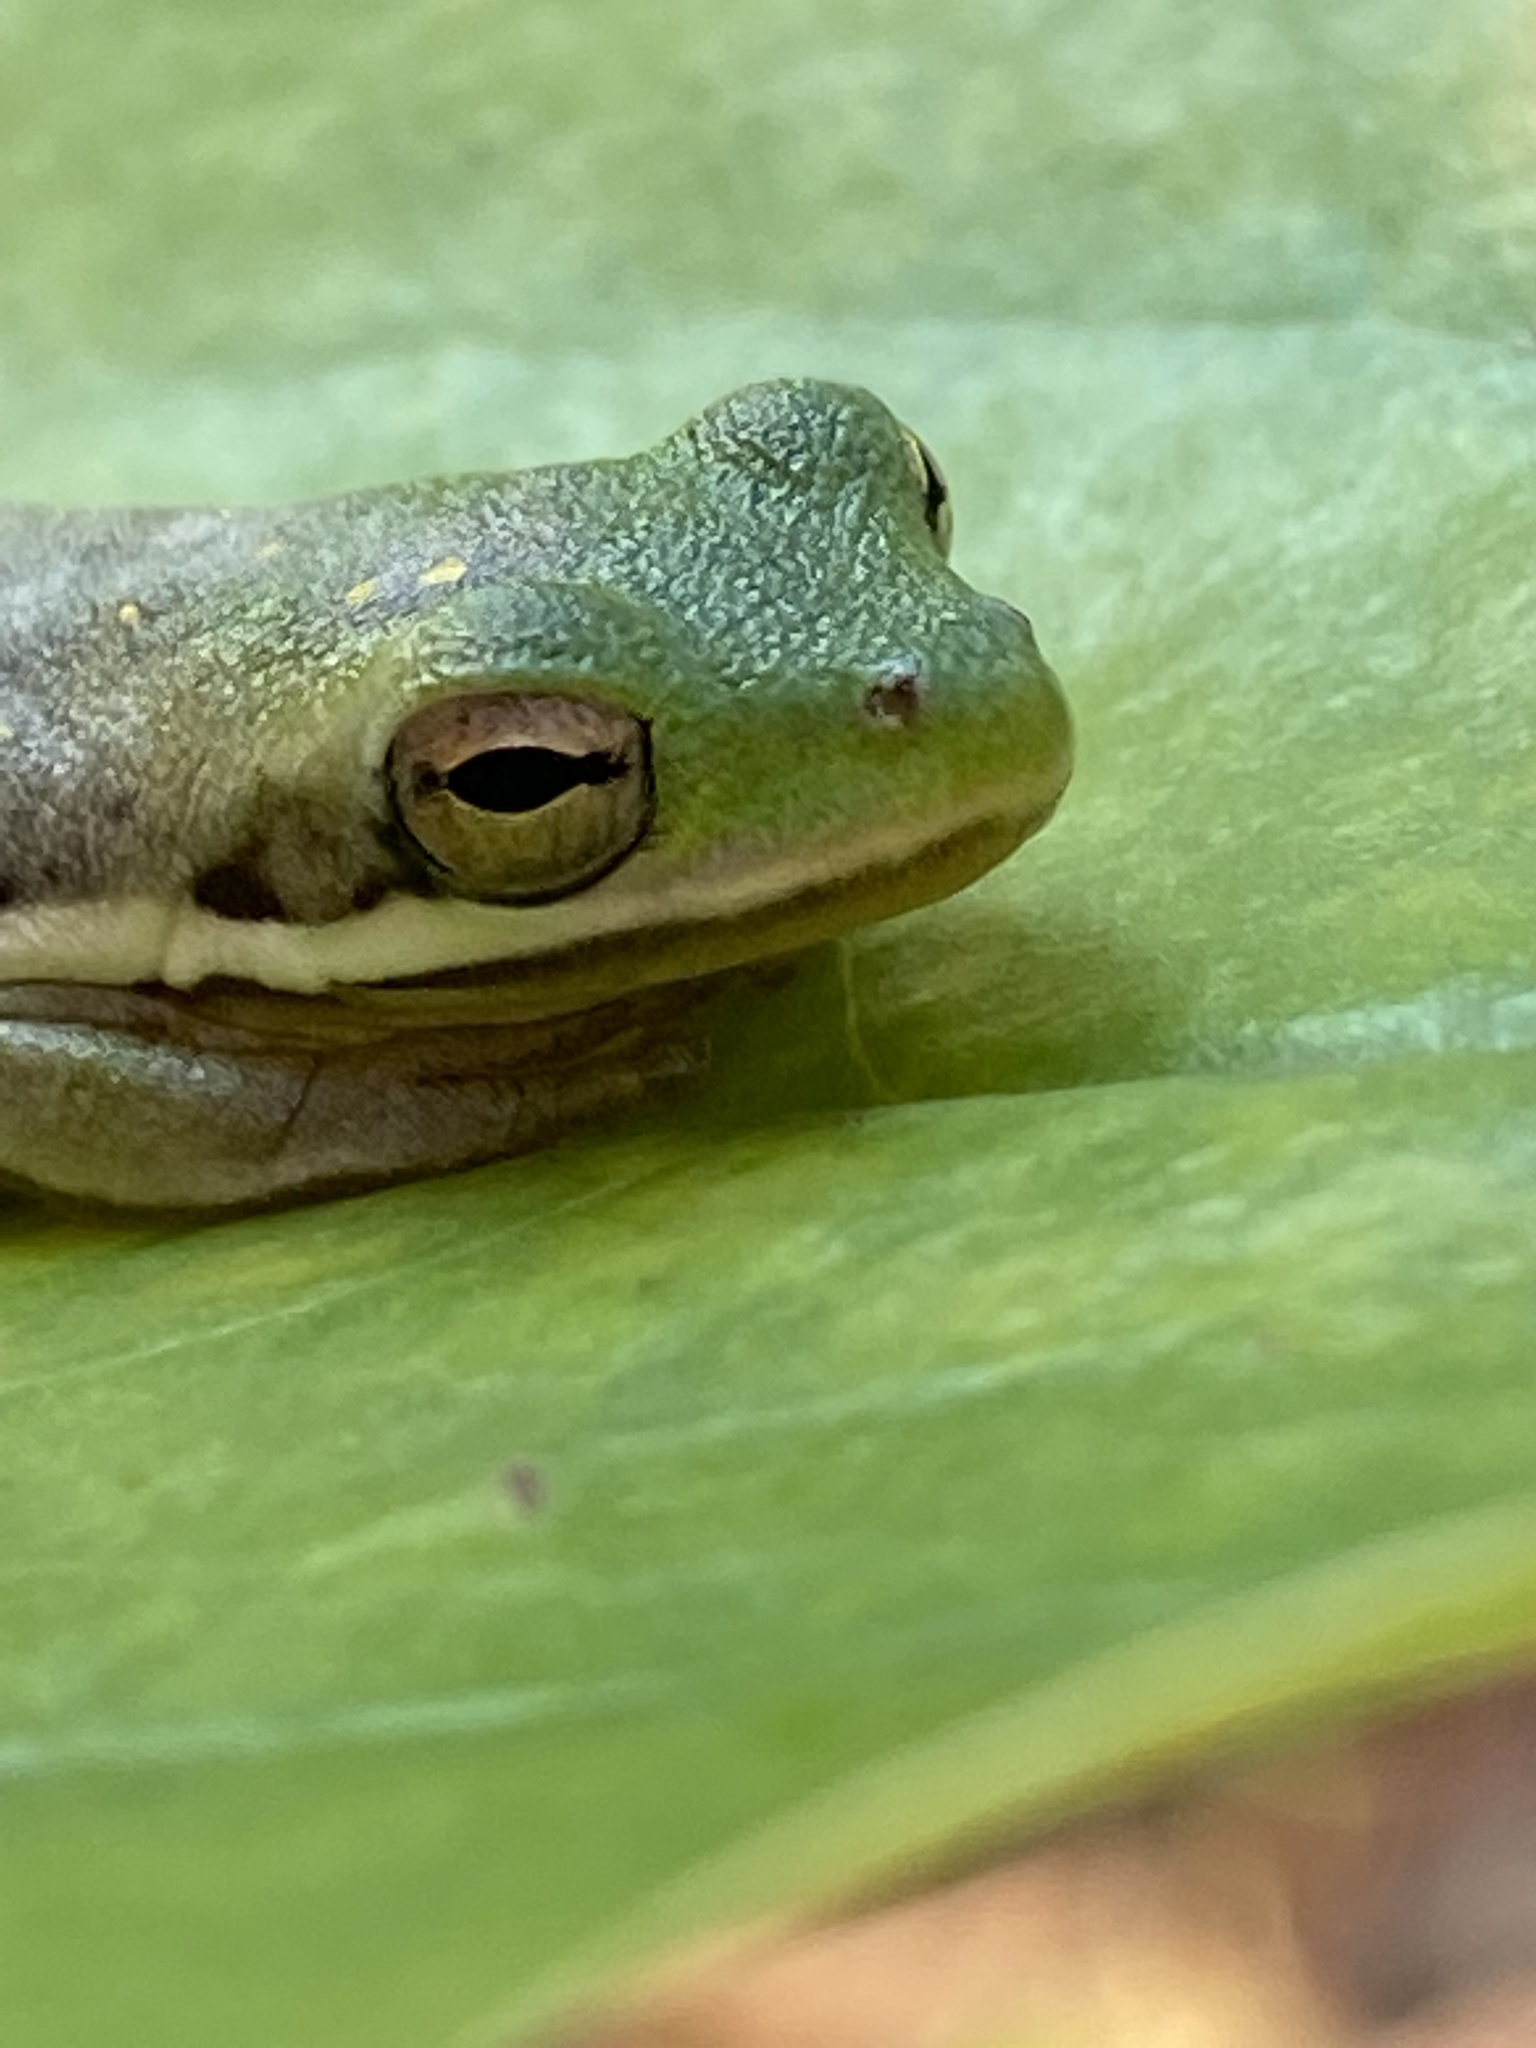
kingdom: Animalia
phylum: Chordata
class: Amphibia
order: Anura
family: Hylidae
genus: Dryophytes
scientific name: Dryophytes cinereus
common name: Green treefrog
